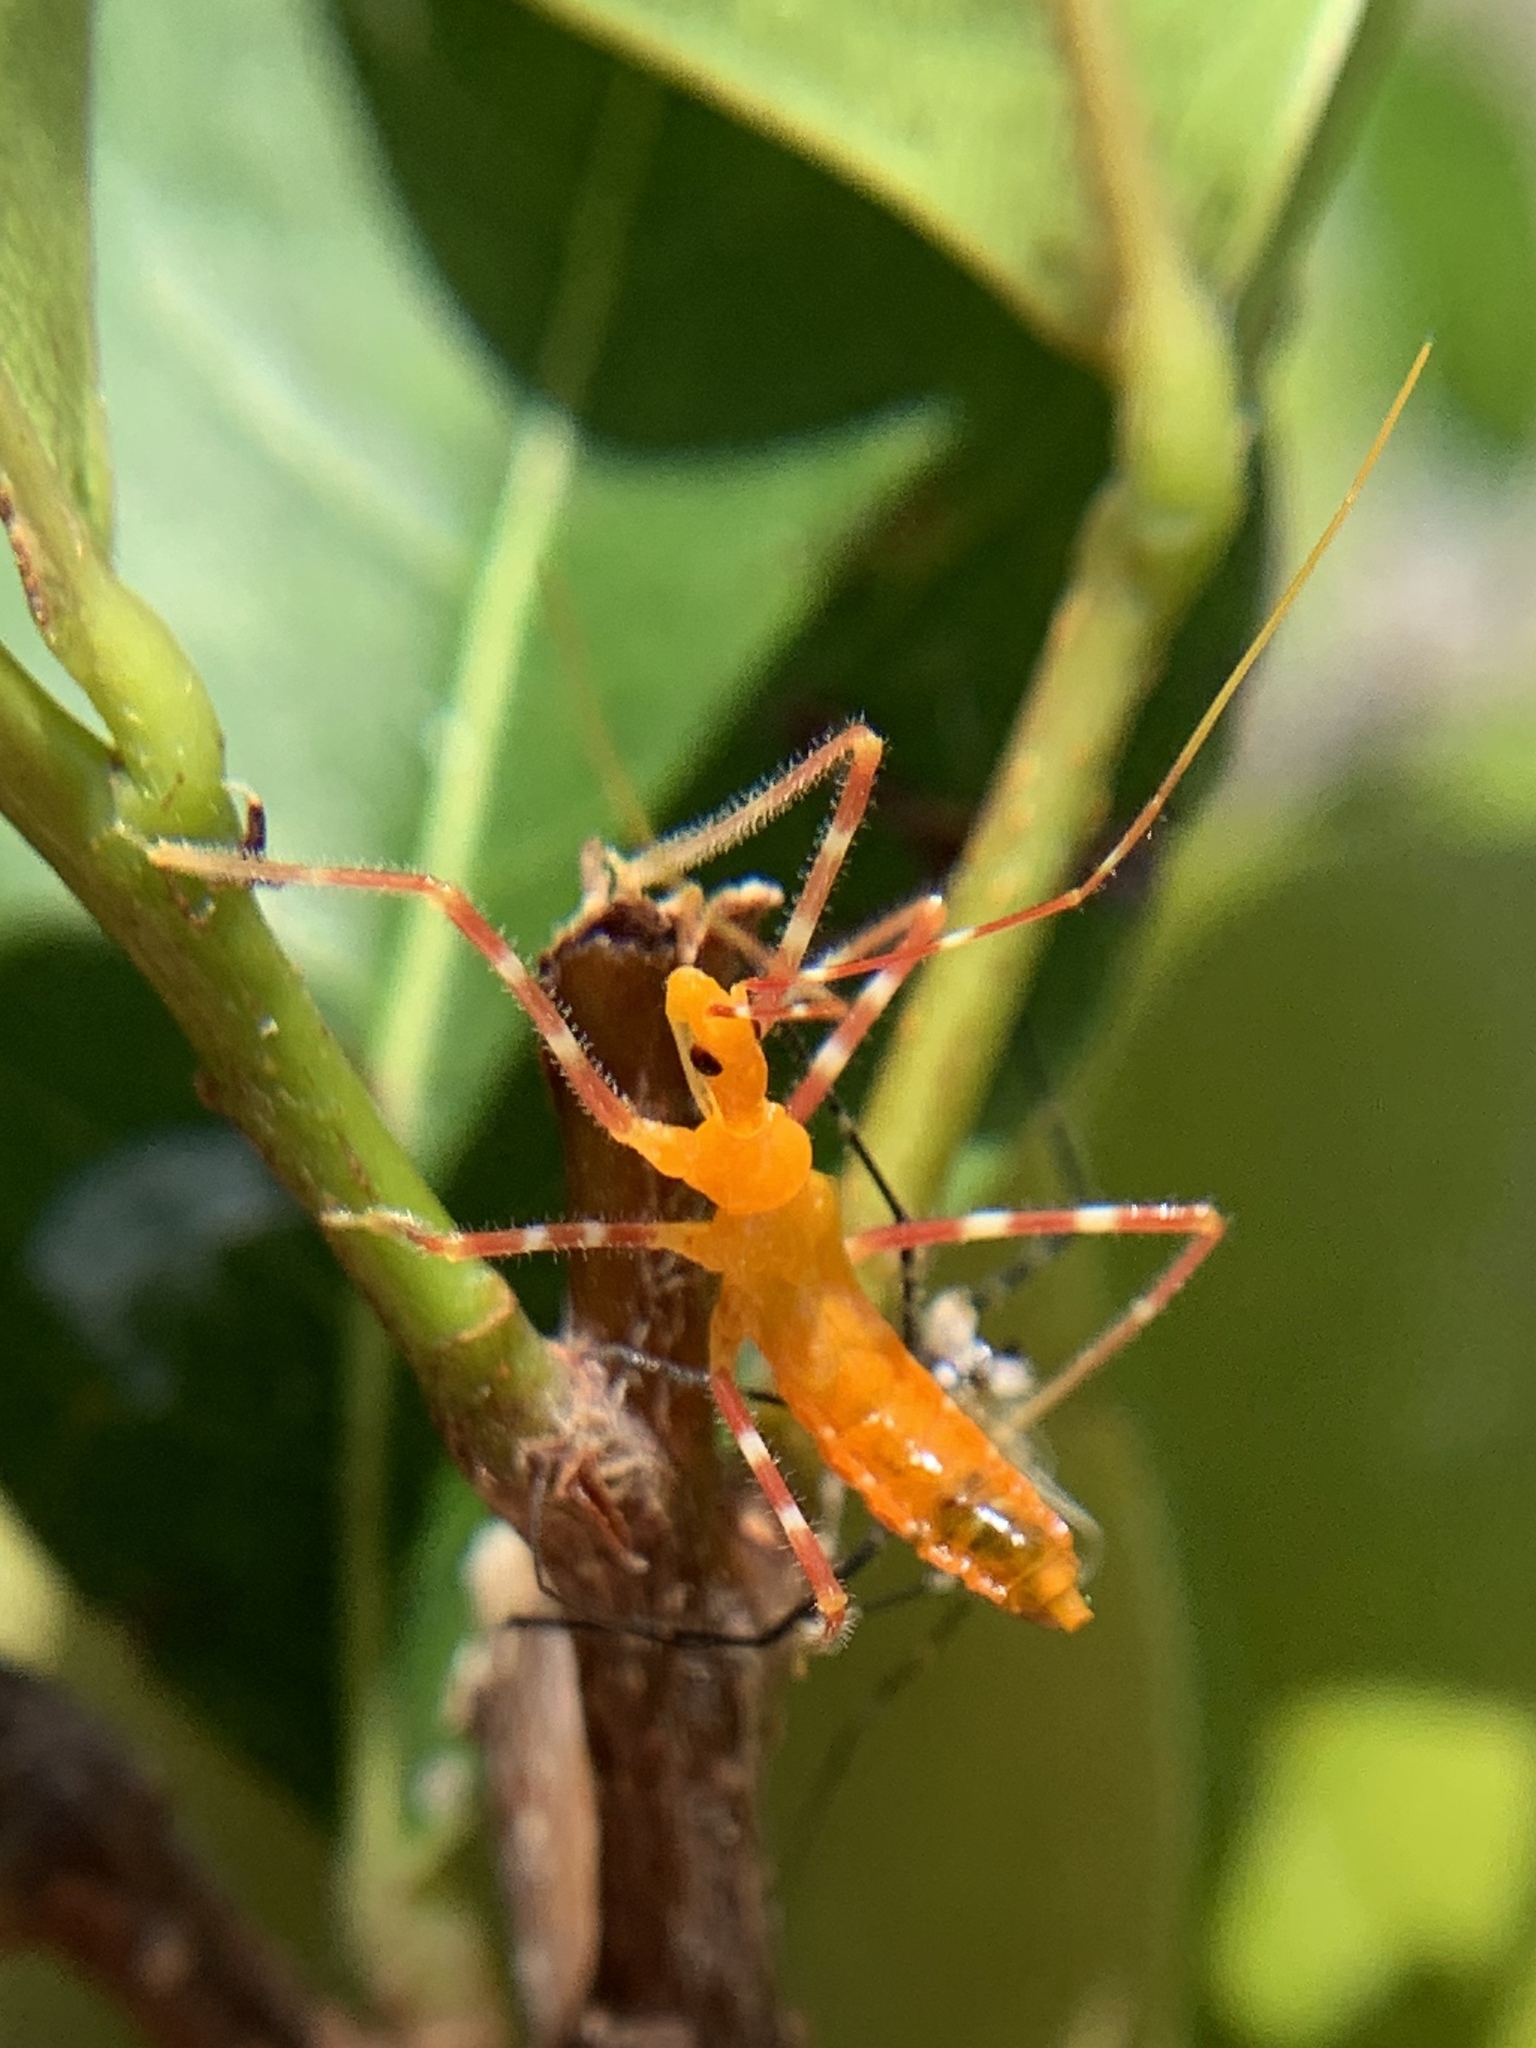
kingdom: Animalia
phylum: Arthropoda
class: Insecta
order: Hemiptera
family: Reduviidae
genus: Zelus
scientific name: Zelus longipes
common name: Milkweed assassin bug
